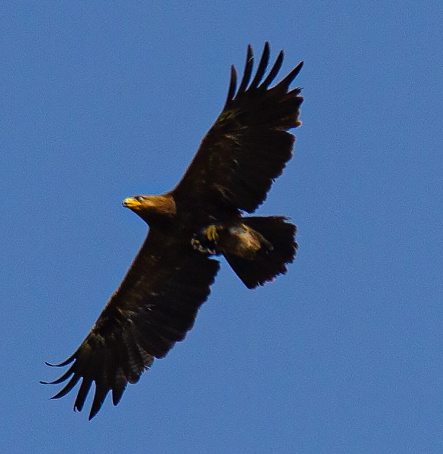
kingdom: Animalia
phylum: Chordata
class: Aves
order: Accipitriformes
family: Accipitridae
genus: Aquila
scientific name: Aquila clanga
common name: Greater spotted eagle
